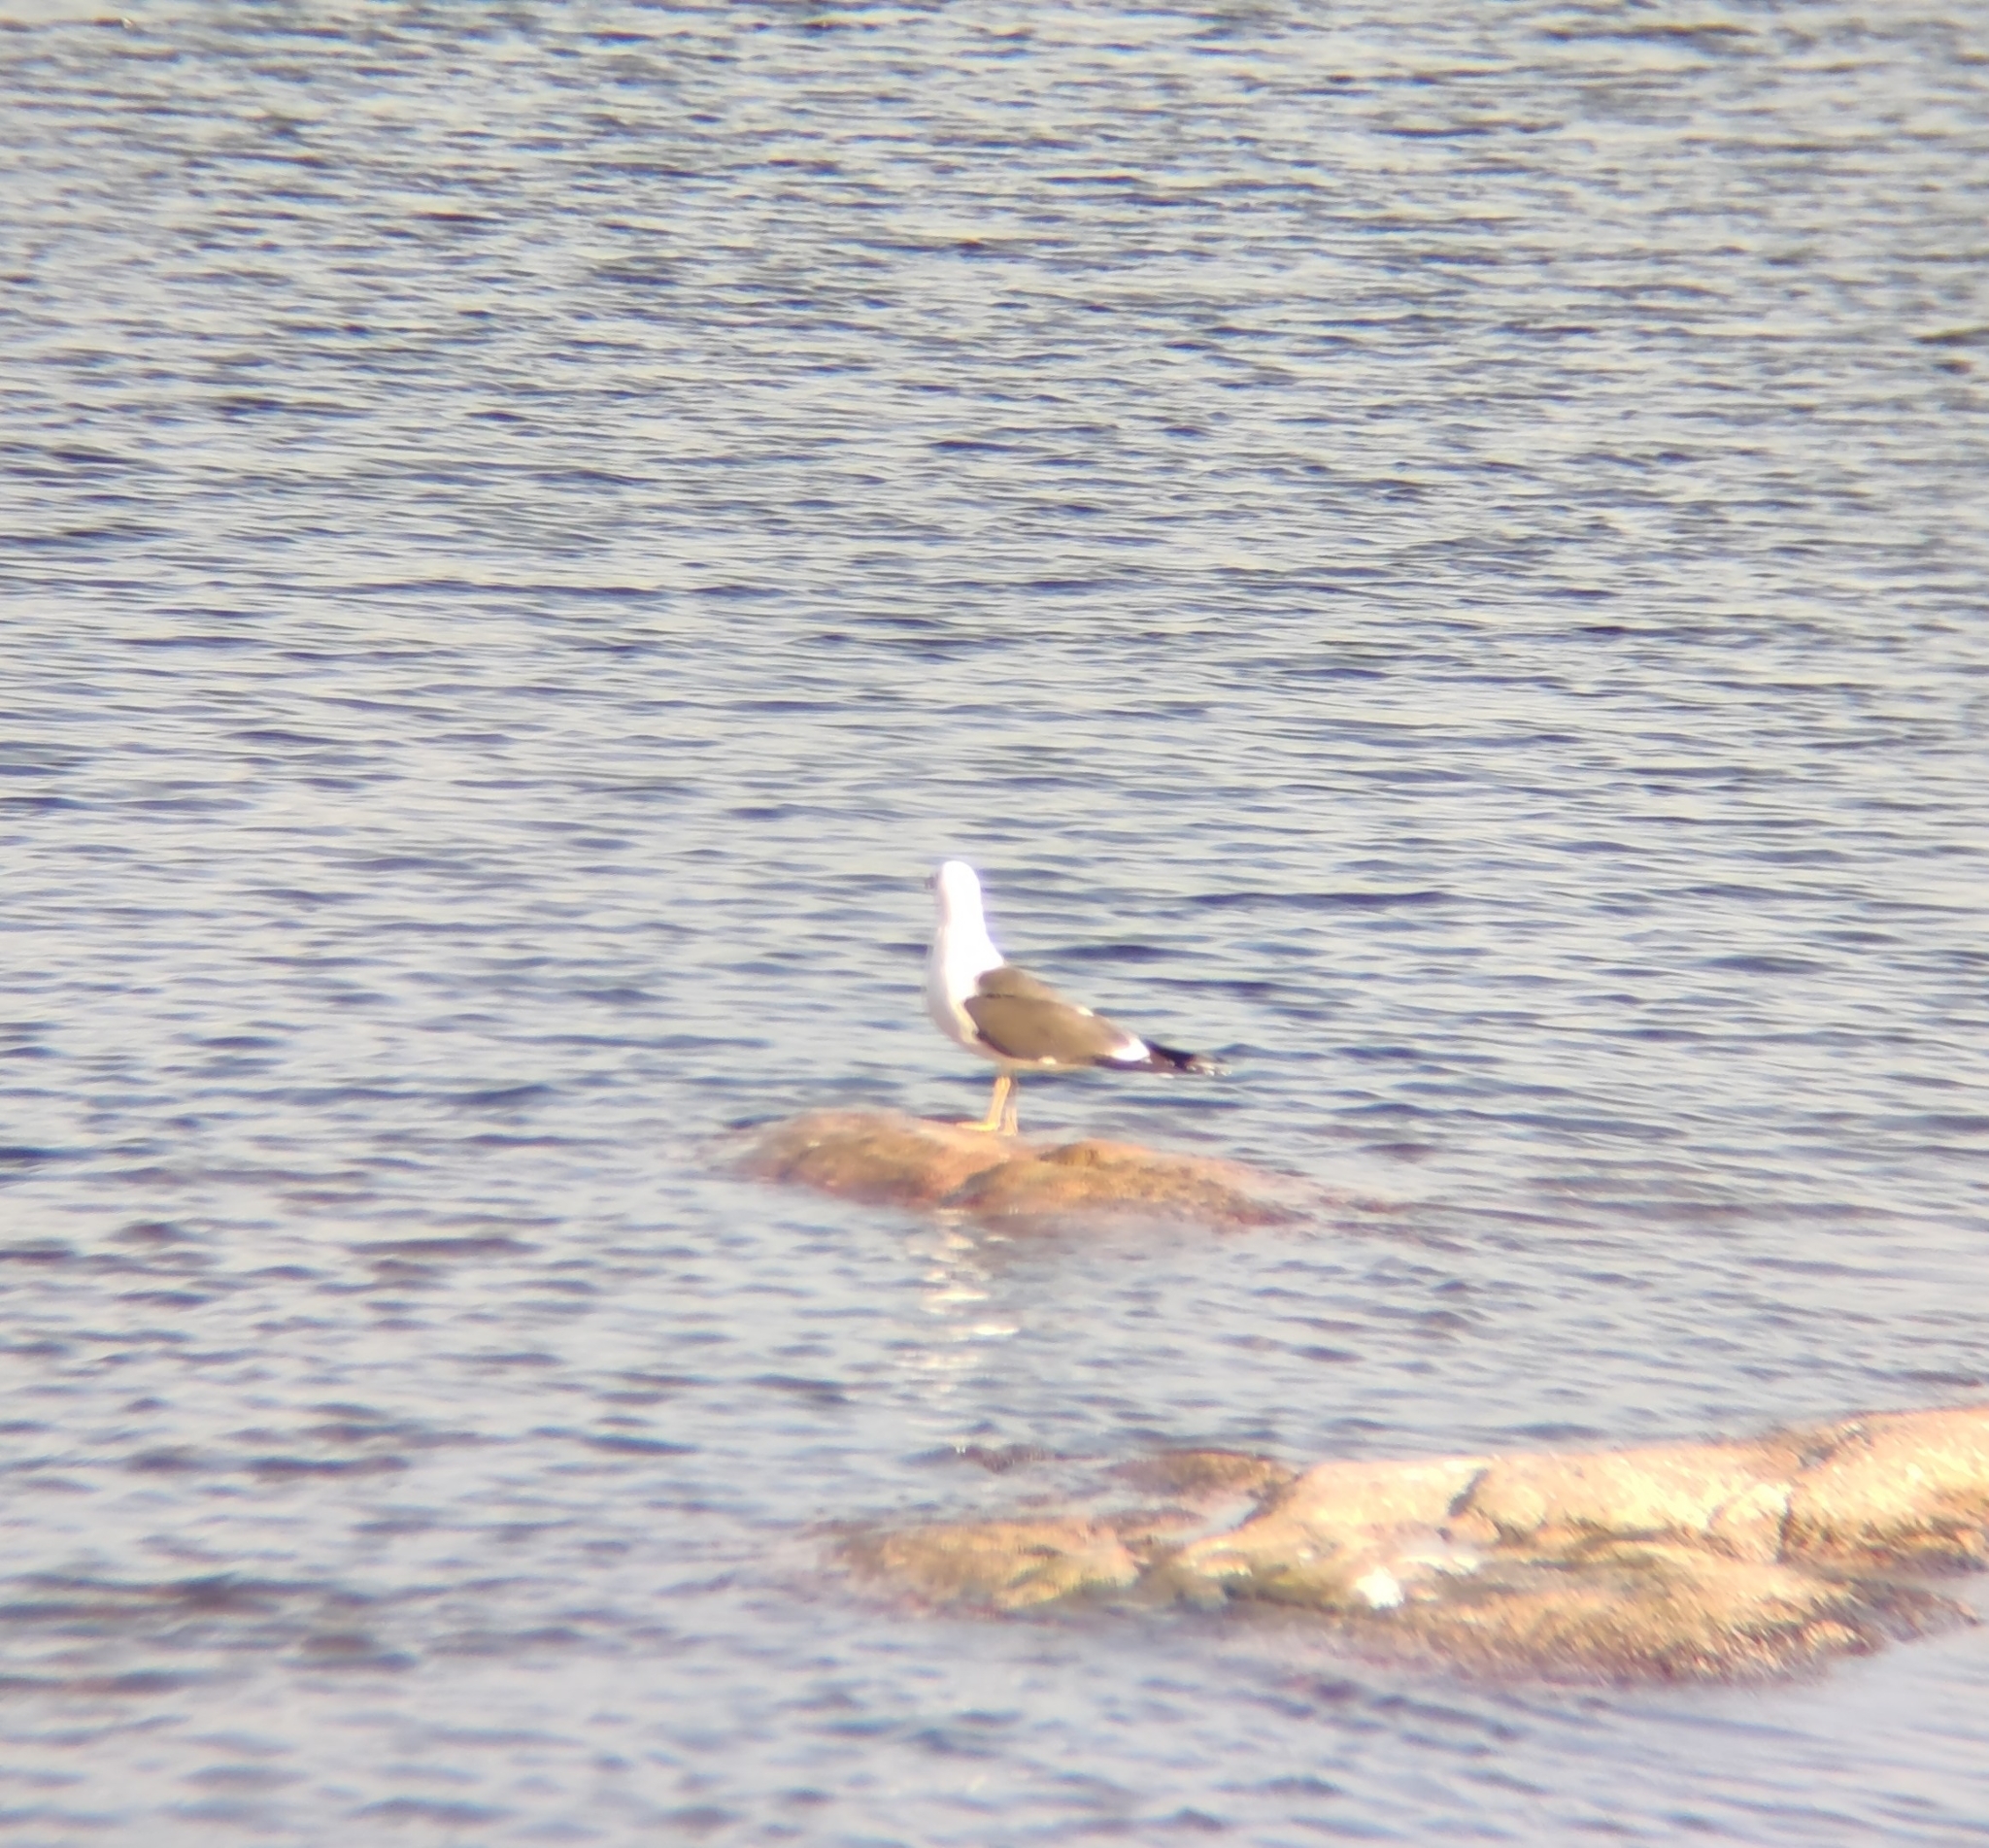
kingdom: Animalia
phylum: Chordata
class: Aves
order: Charadriiformes
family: Laridae
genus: Larus
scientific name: Larus fuscus
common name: Lesser black-backed gull
